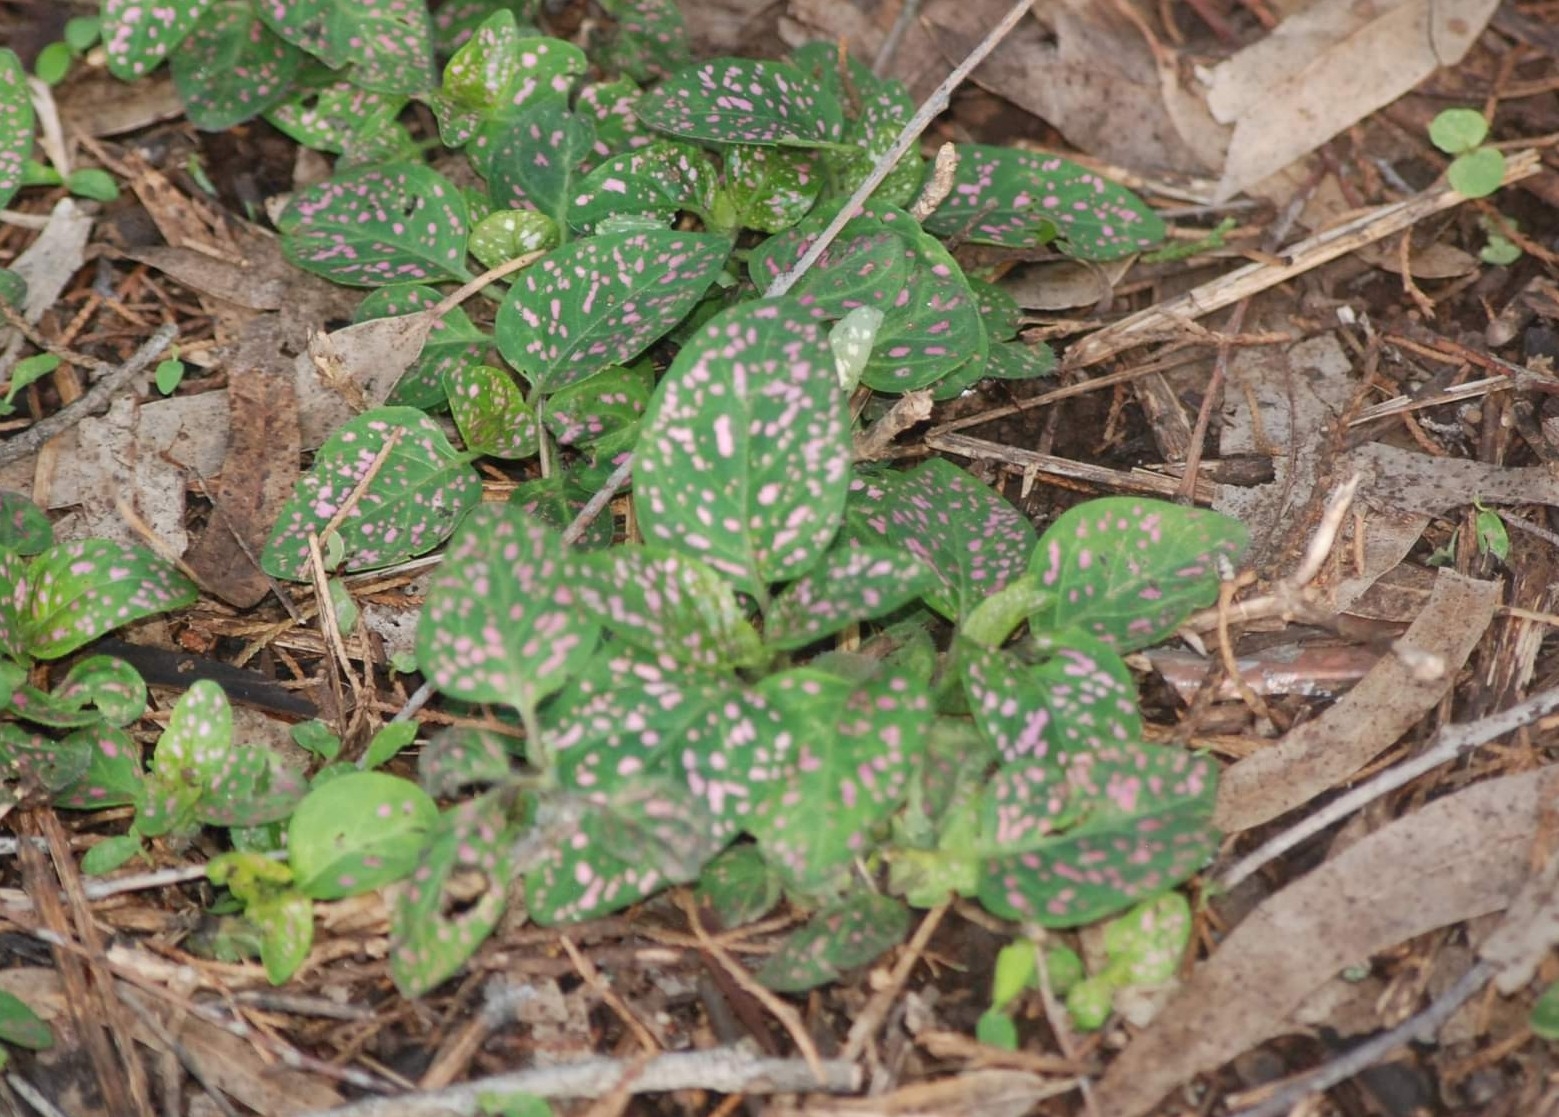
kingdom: Plantae
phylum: Tracheophyta
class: Magnoliopsida
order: Lamiales
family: Acanthaceae
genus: Hypoestes
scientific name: Hypoestes phyllostachya
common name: Polkadot-plant
